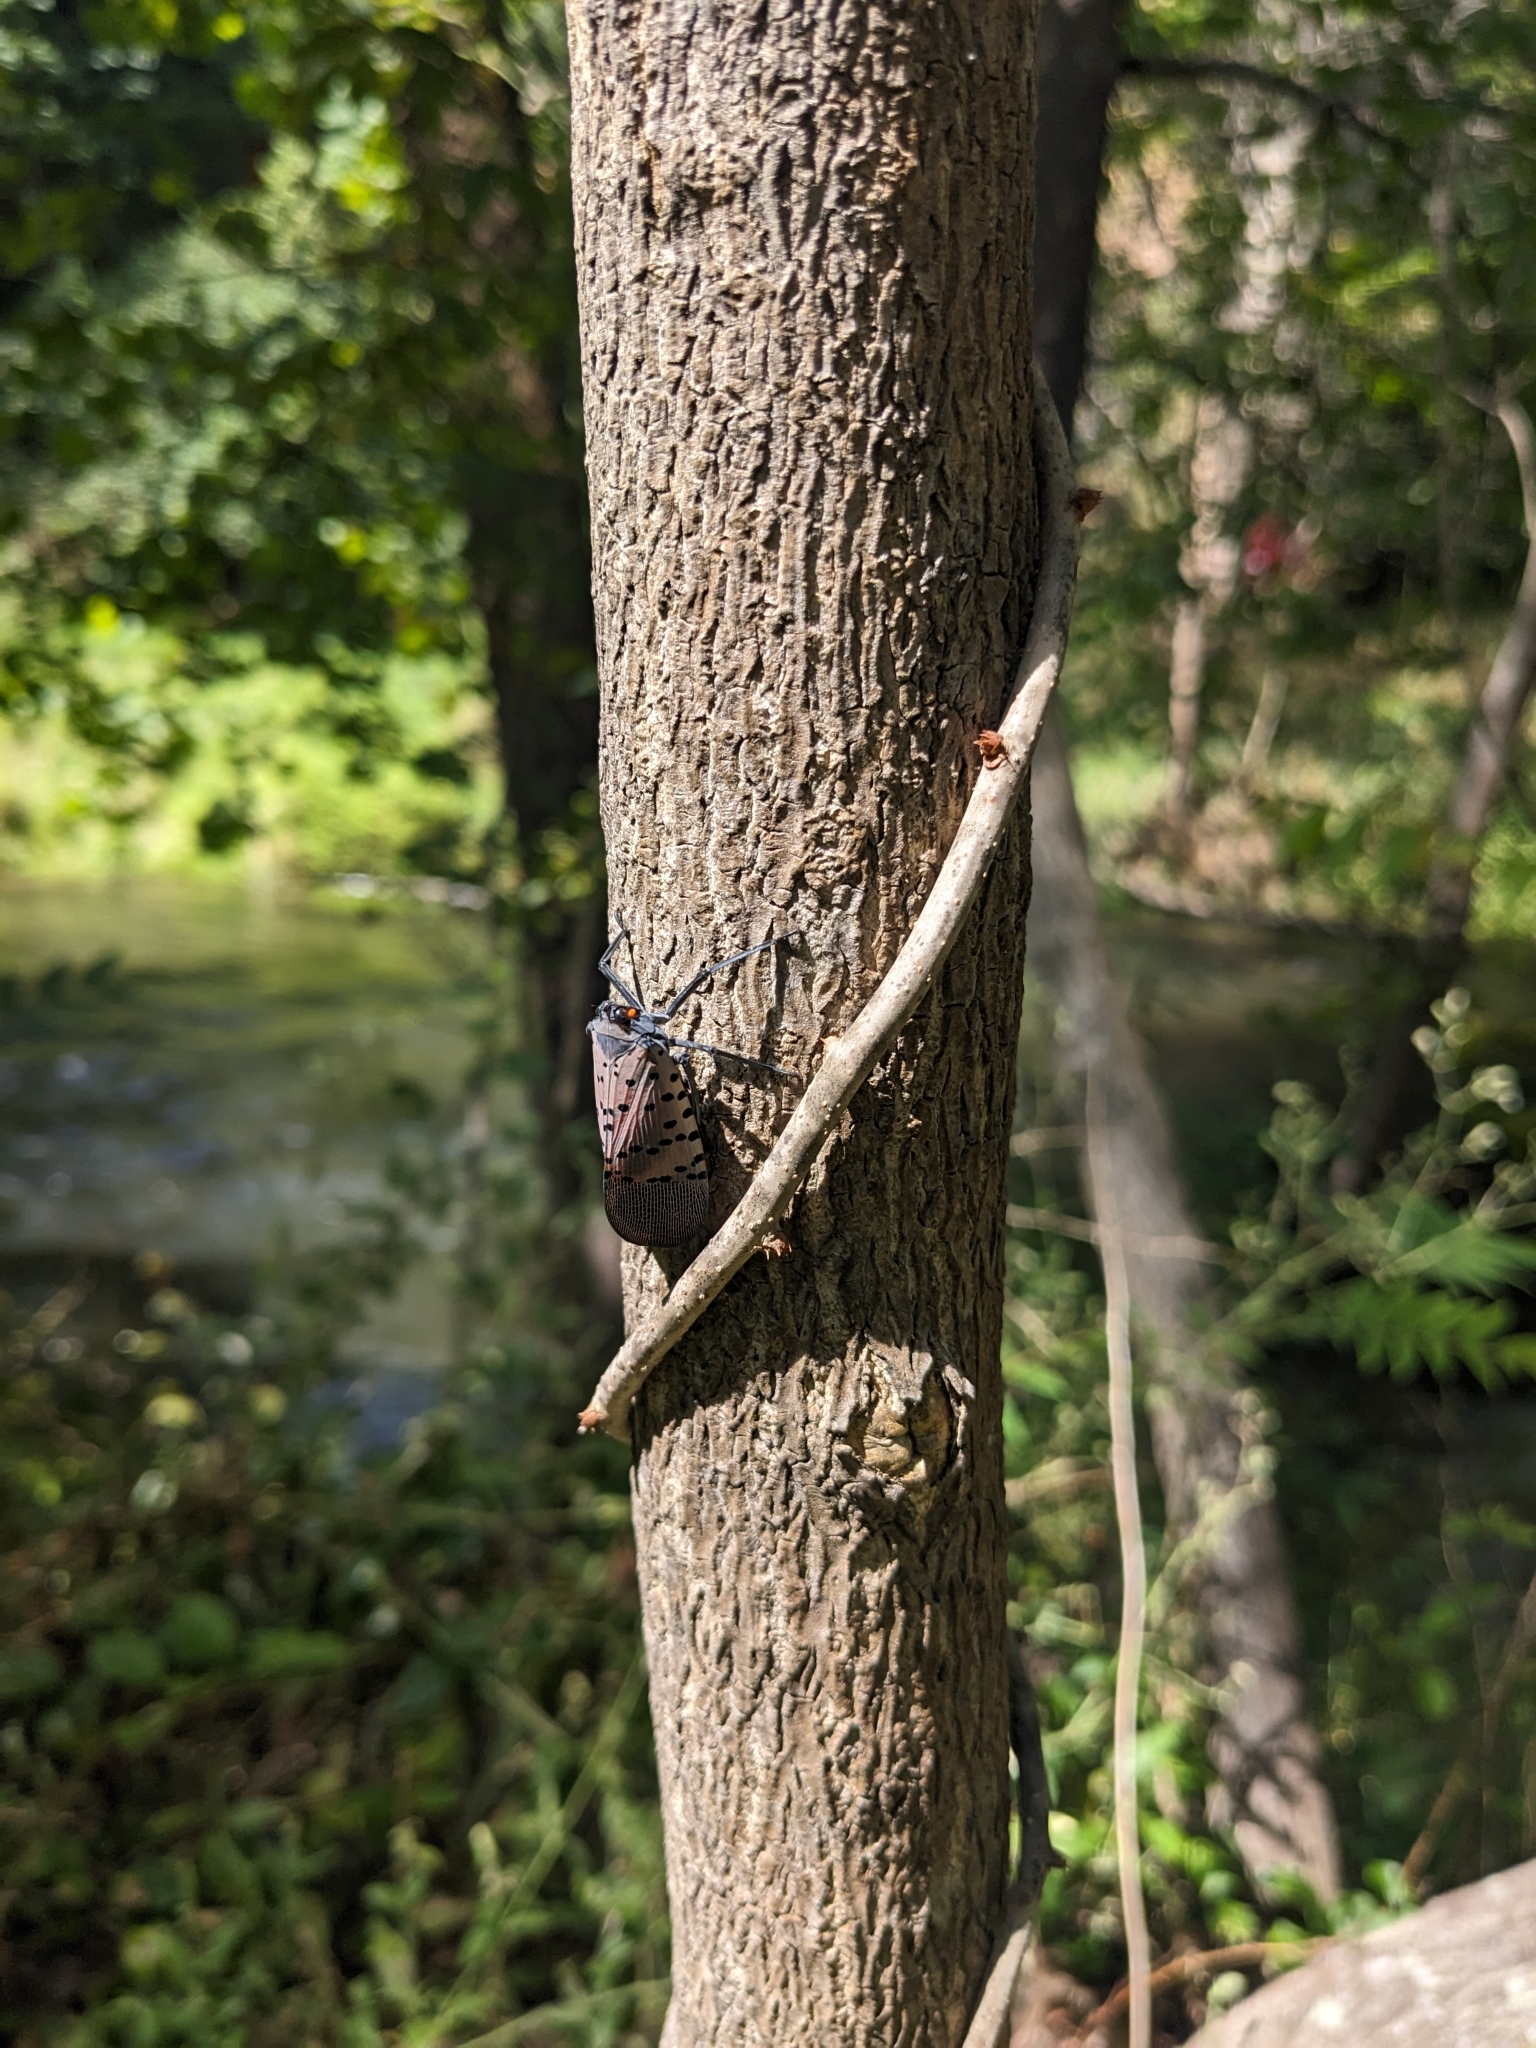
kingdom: Animalia
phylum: Arthropoda
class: Insecta
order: Hemiptera
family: Fulgoridae
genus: Lycorma
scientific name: Lycorma delicatula
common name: Spotted lanternfly
